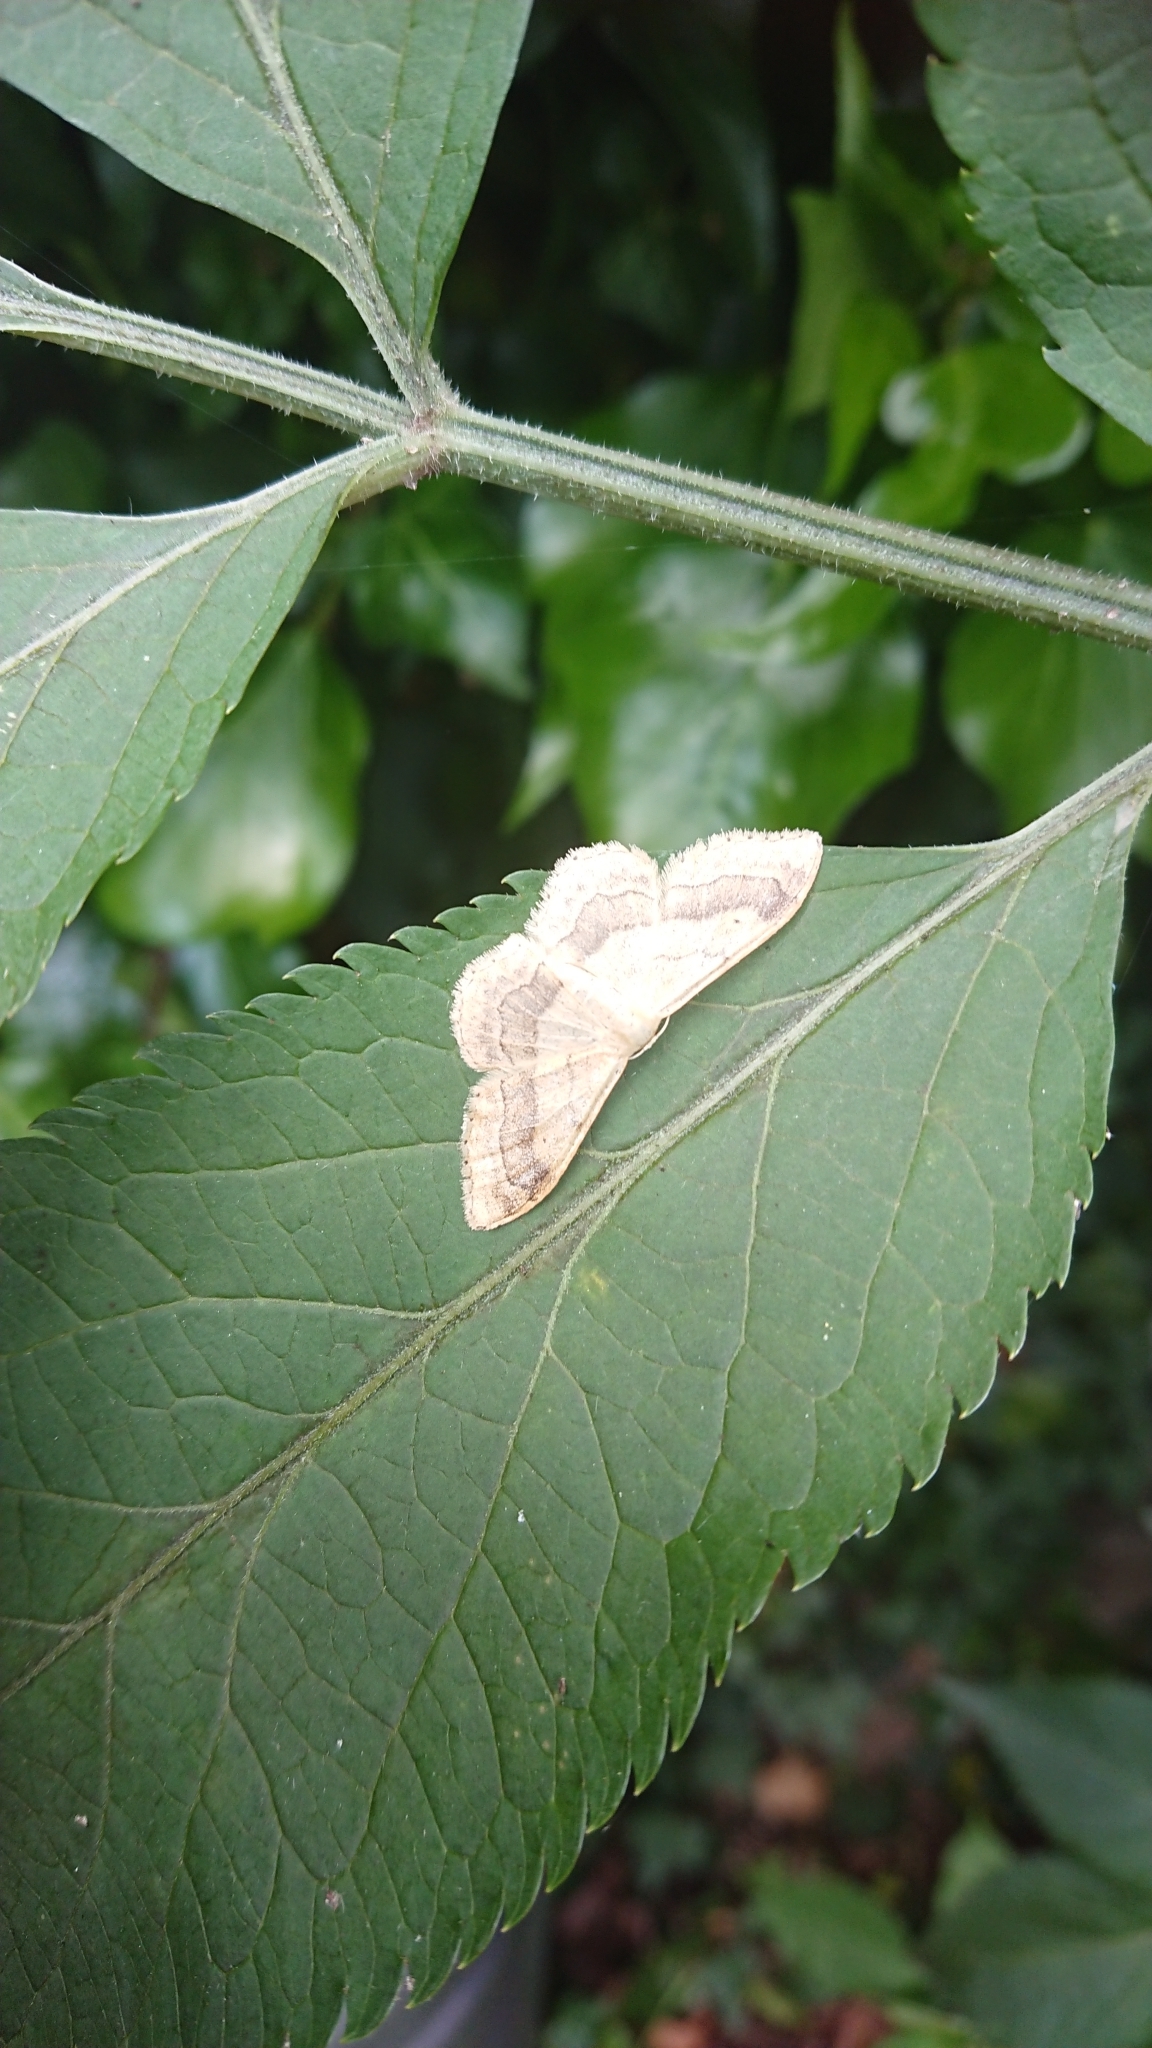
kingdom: Animalia
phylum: Arthropoda
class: Insecta
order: Lepidoptera
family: Geometridae
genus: Idaea
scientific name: Idaea aversata
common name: Riband wave
